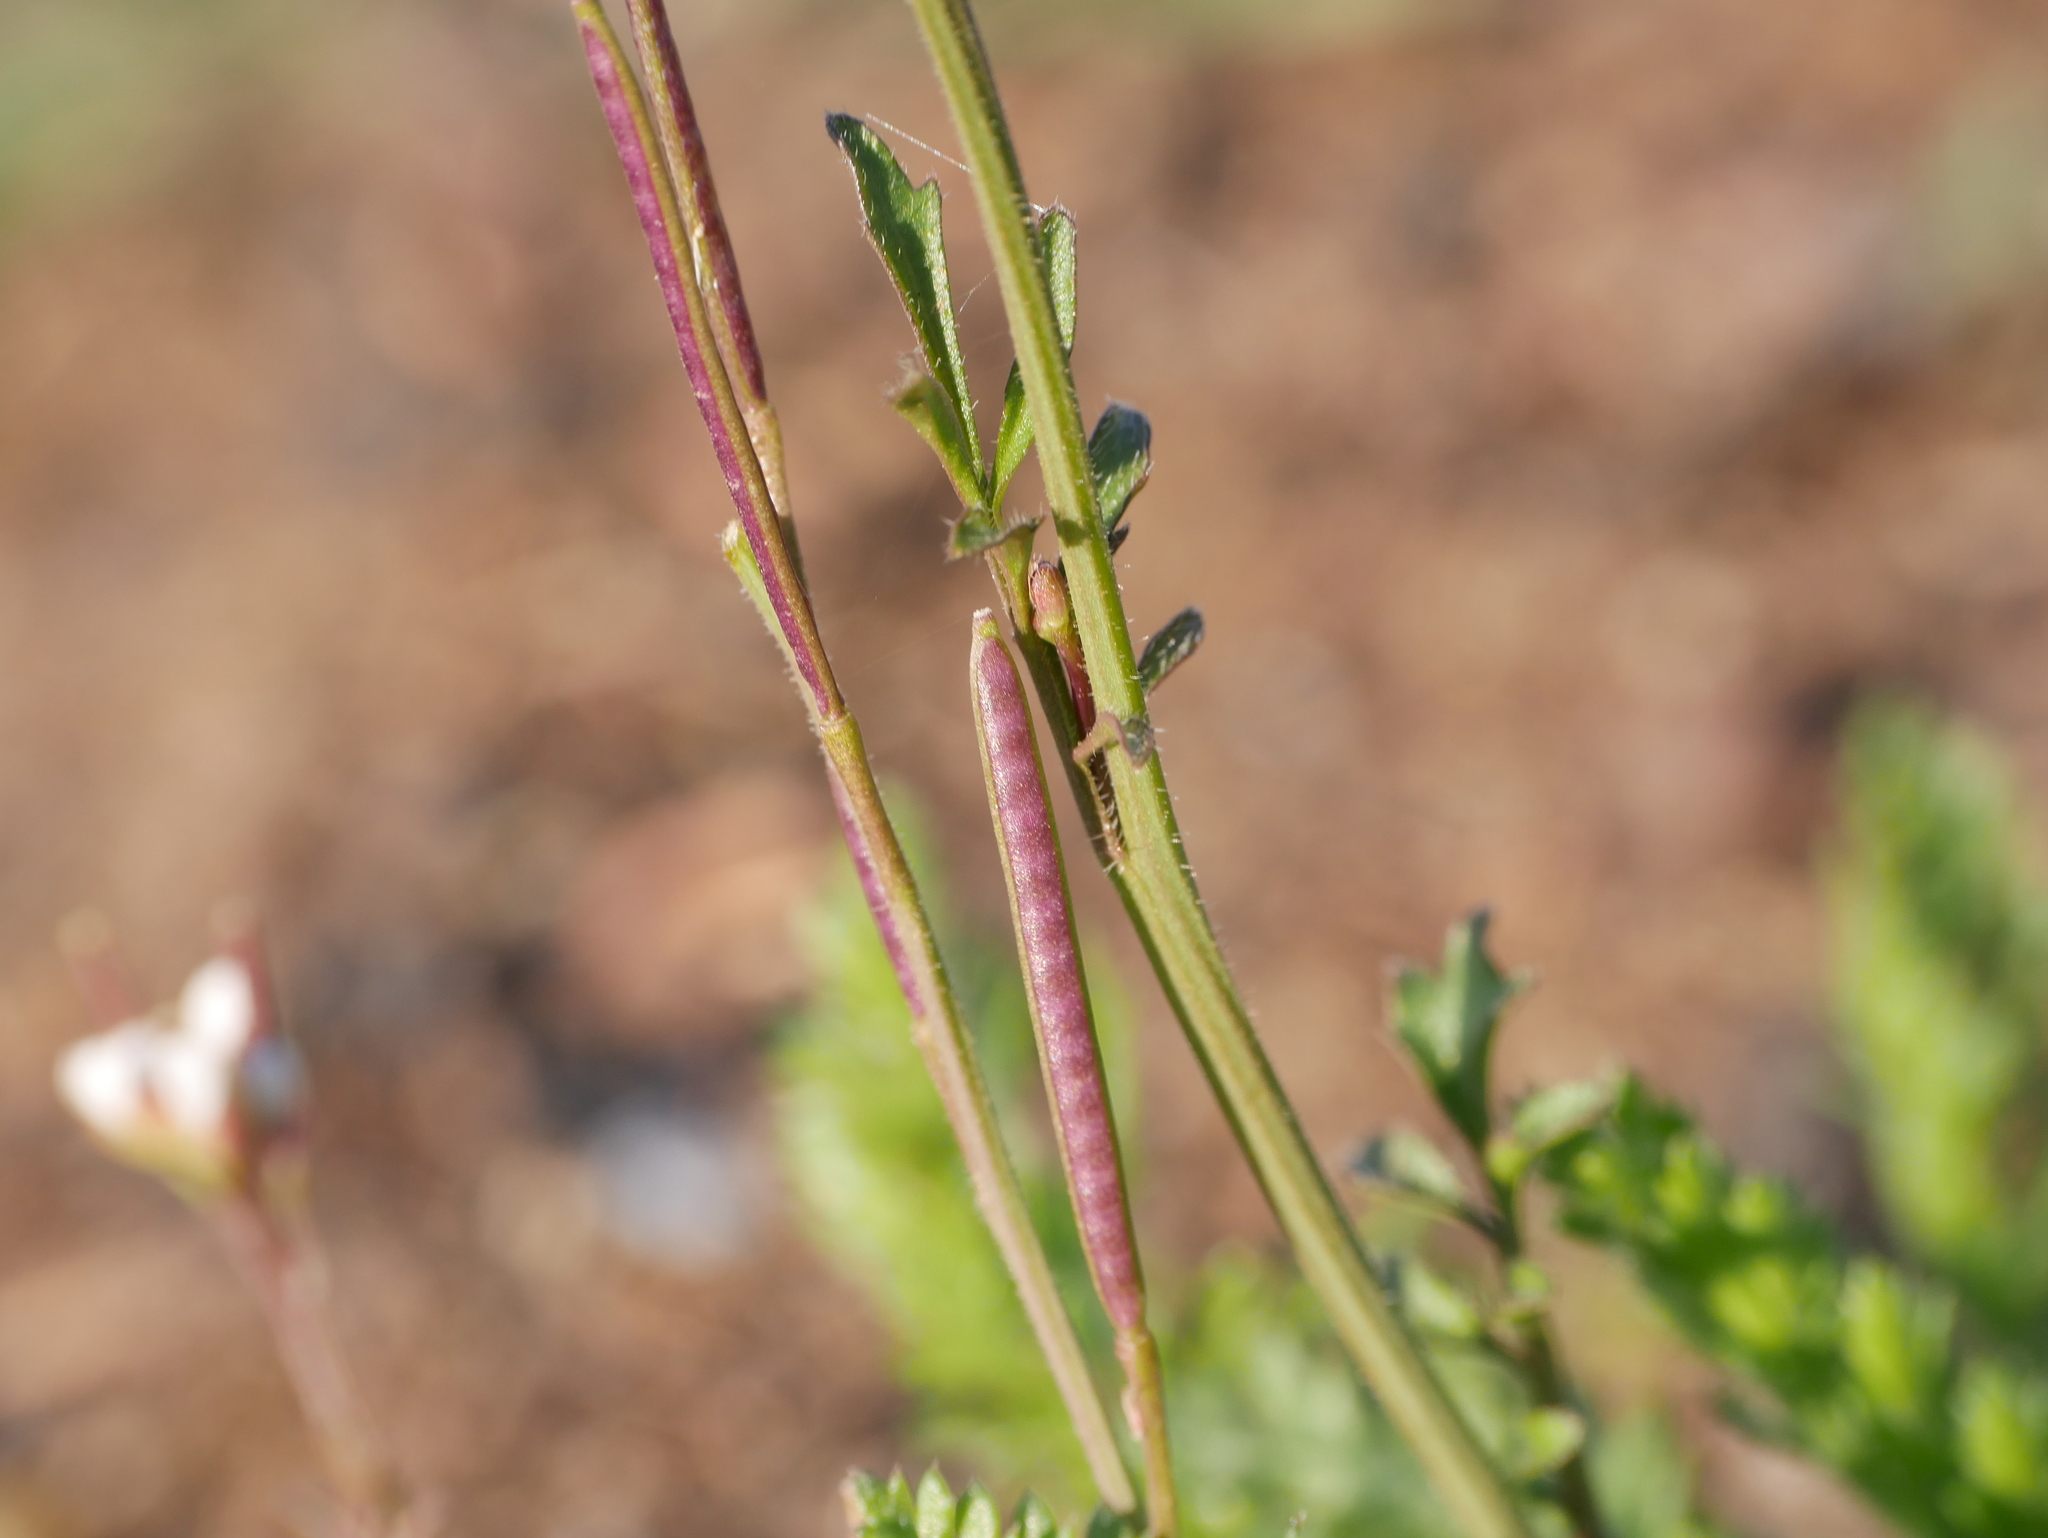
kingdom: Plantae
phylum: Tracheophyta
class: Magnoliopsida
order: Brassicales
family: Brassicaceae
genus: Cardamine
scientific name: Cardamine hirsuta
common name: Hairy bittercress
